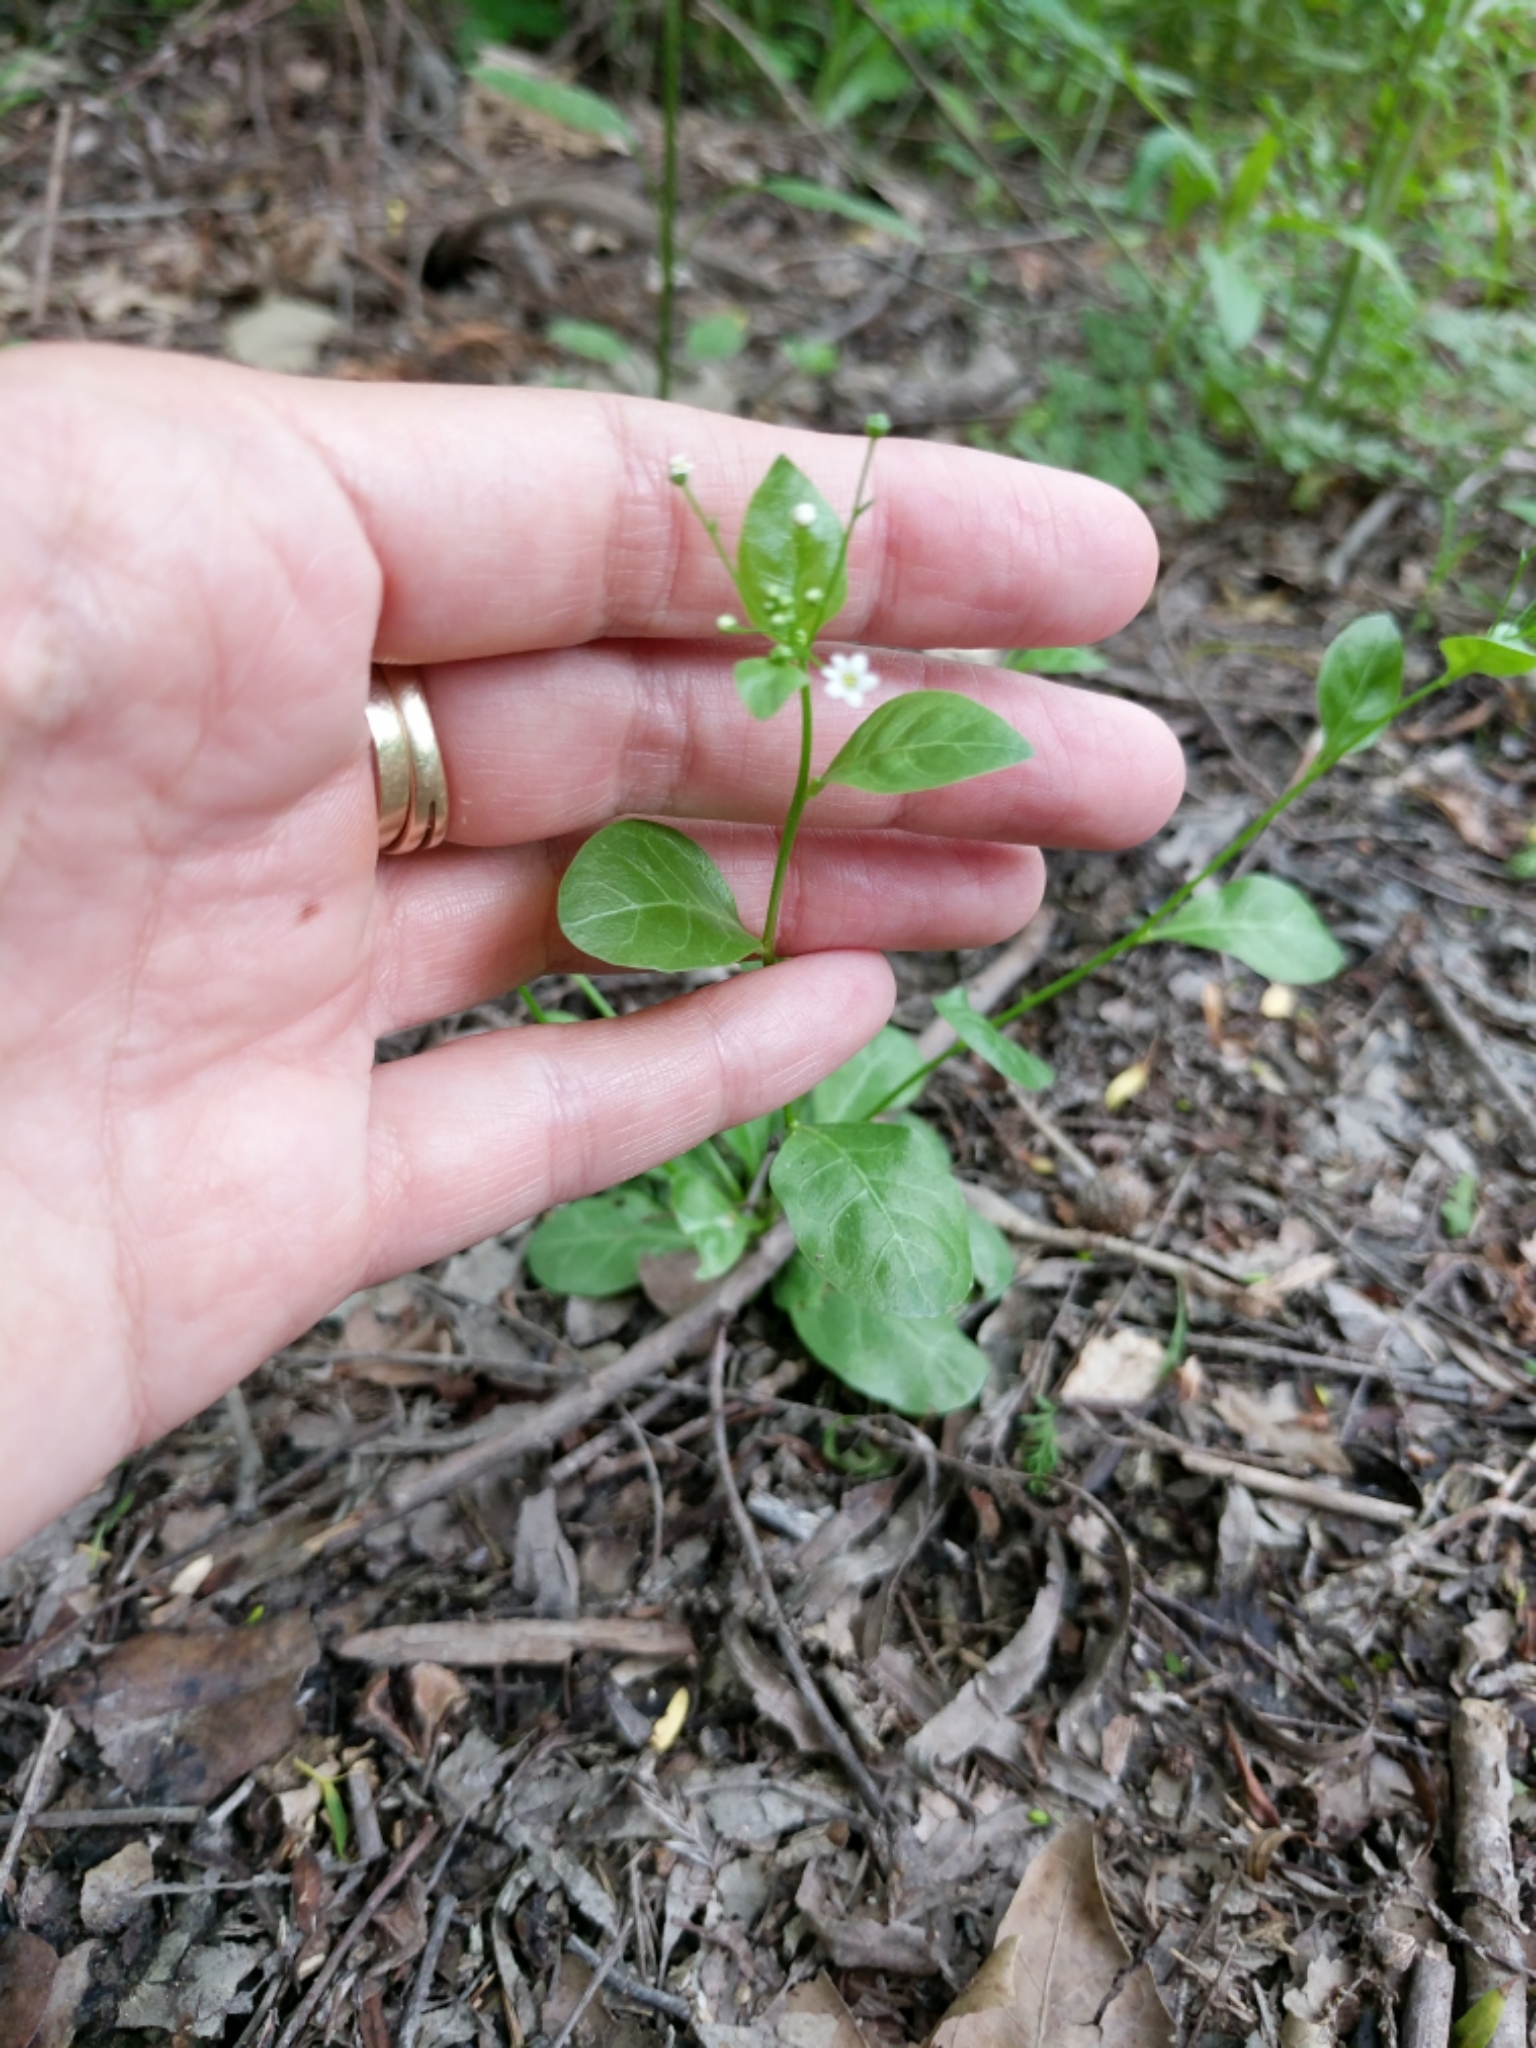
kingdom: Plantae
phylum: Tracheophyta
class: Magnoliopsida
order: Ericales
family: Primulaceae
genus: Samolus
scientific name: Samolus parviflorus
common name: False water pimpernel
